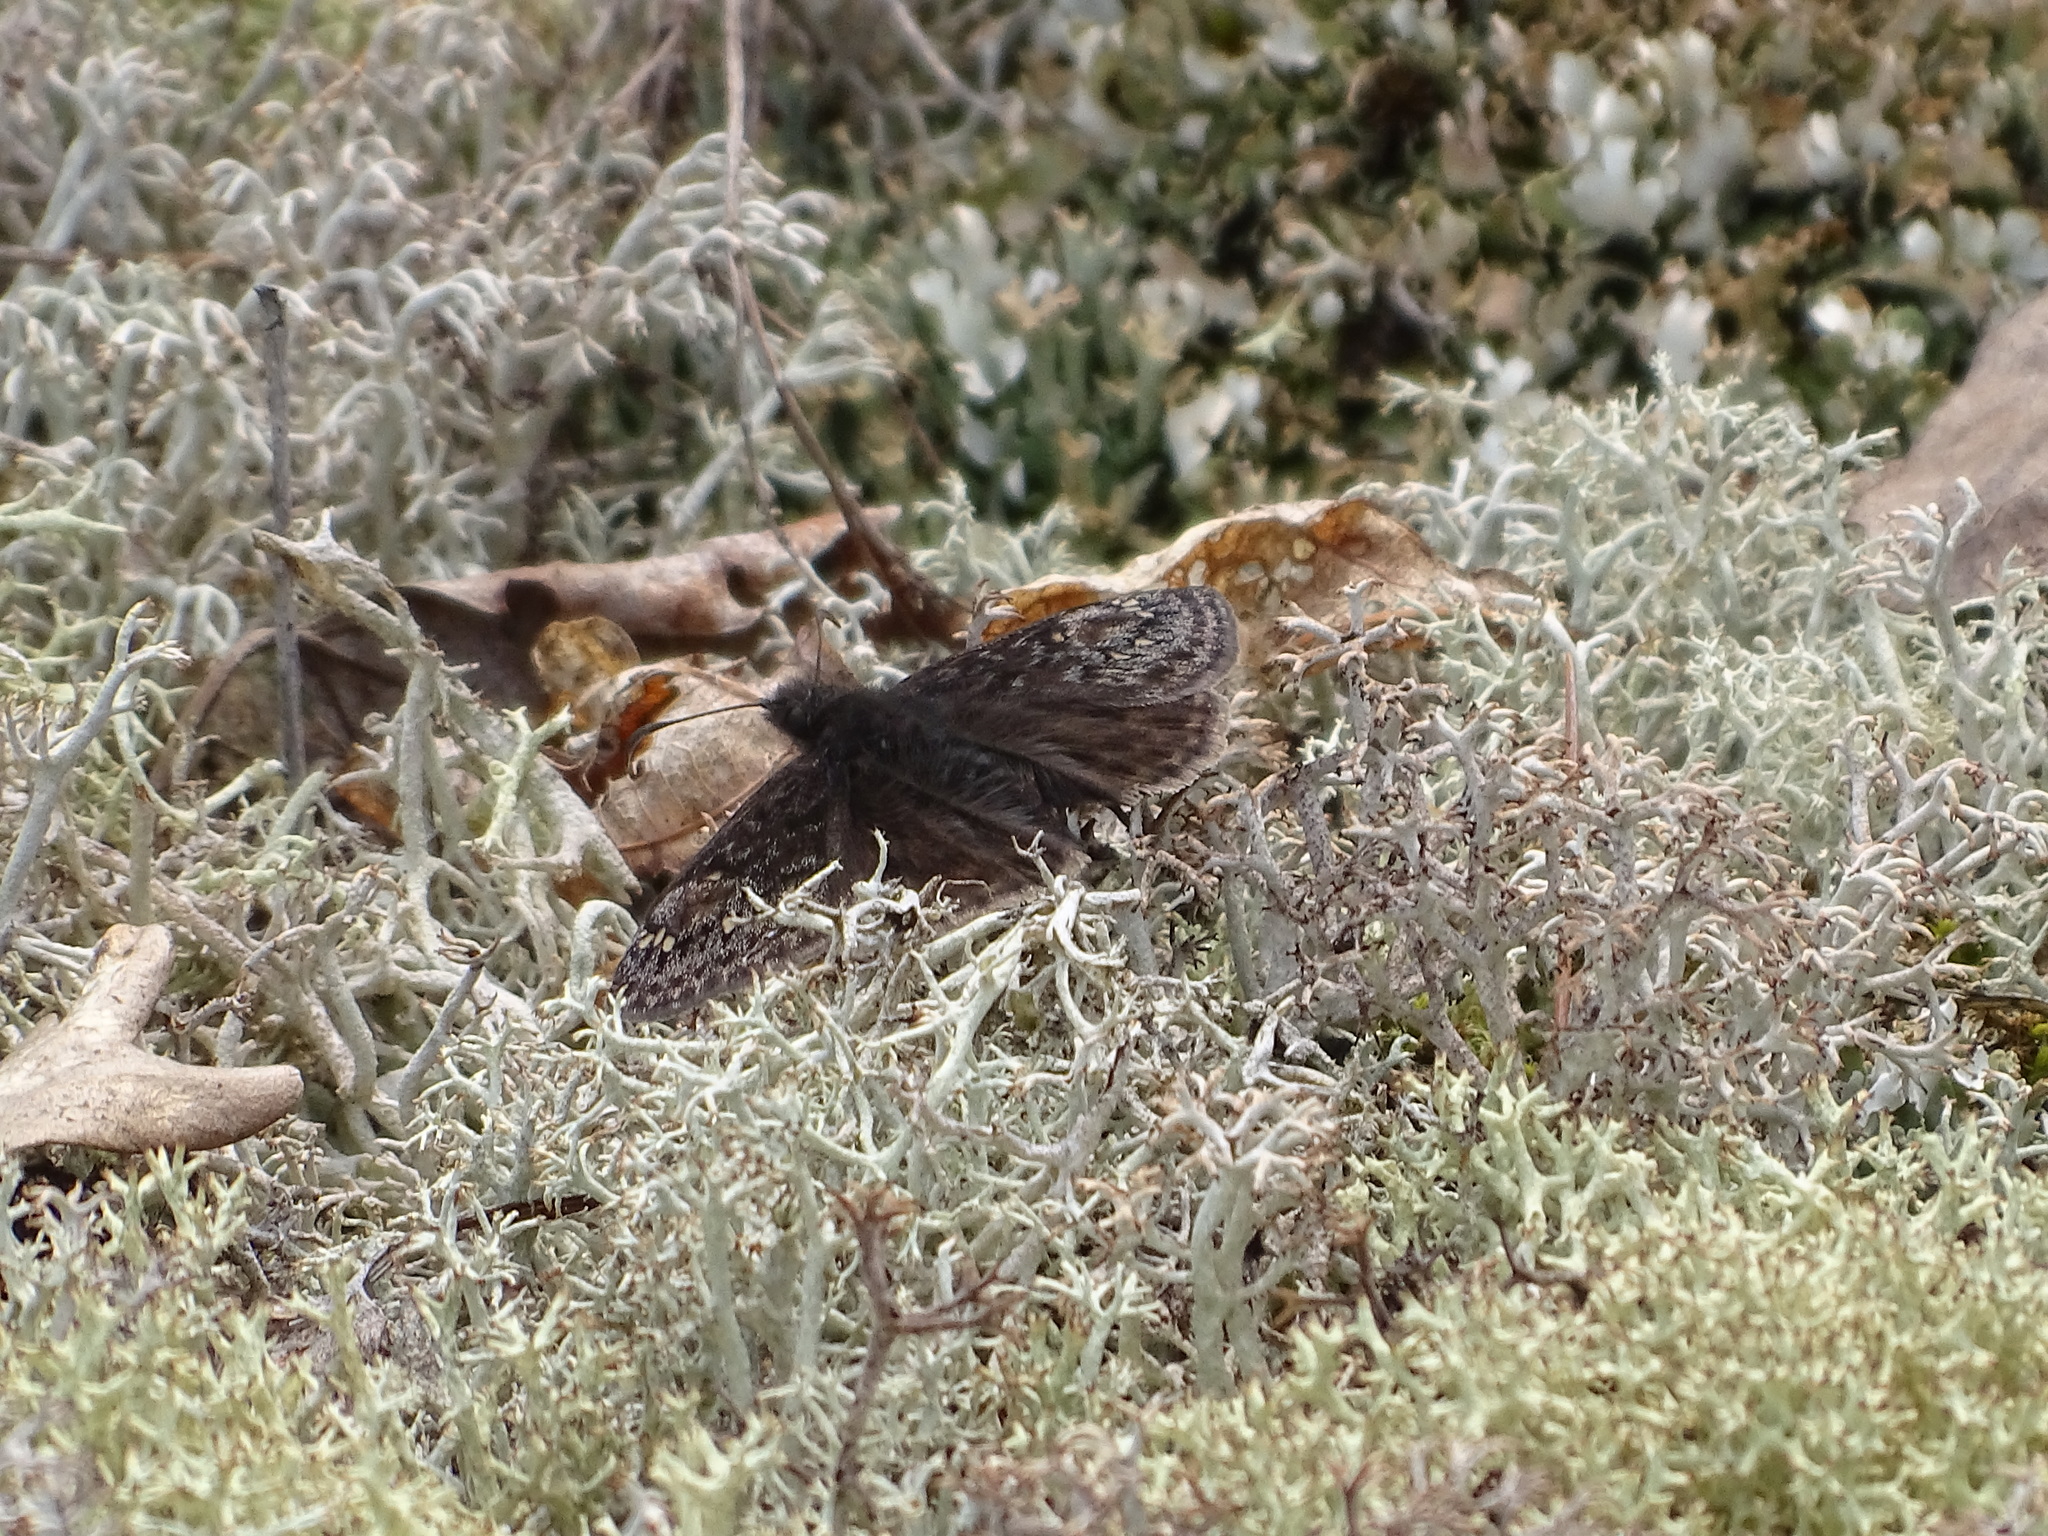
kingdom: Animalia
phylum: Arthropoda
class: Insecta
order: Lepidoptera
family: Hesperiidae
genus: Erynnis
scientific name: Erynnis juvenalis
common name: Juvenal's duskywing
